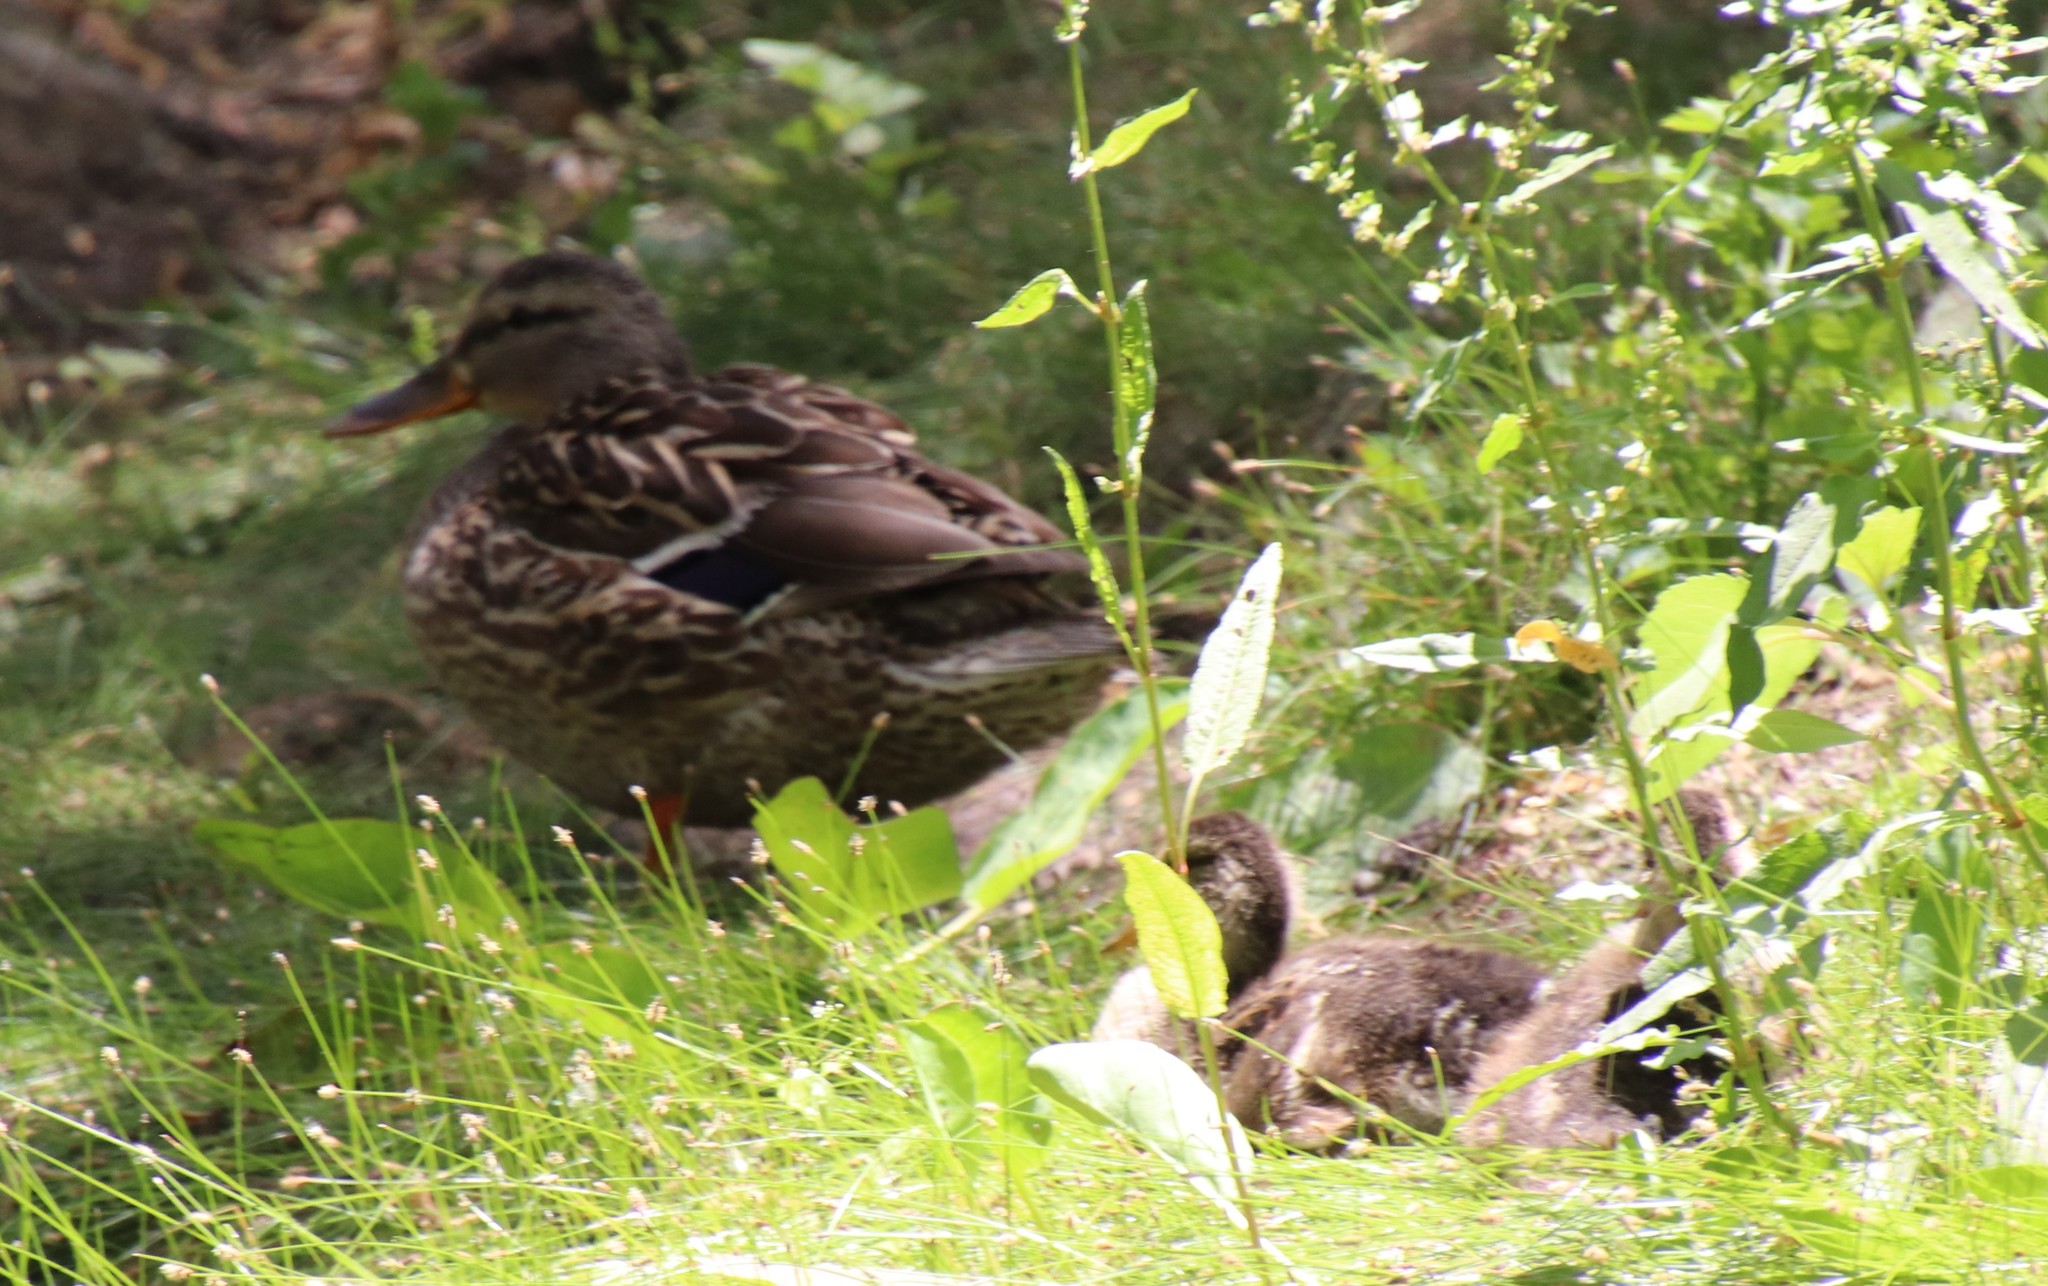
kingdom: Animalia
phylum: Chordata
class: Aves
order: Anseriformes
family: Anatidae
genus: Anas
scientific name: Anas platyrhynchos
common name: Mallard
